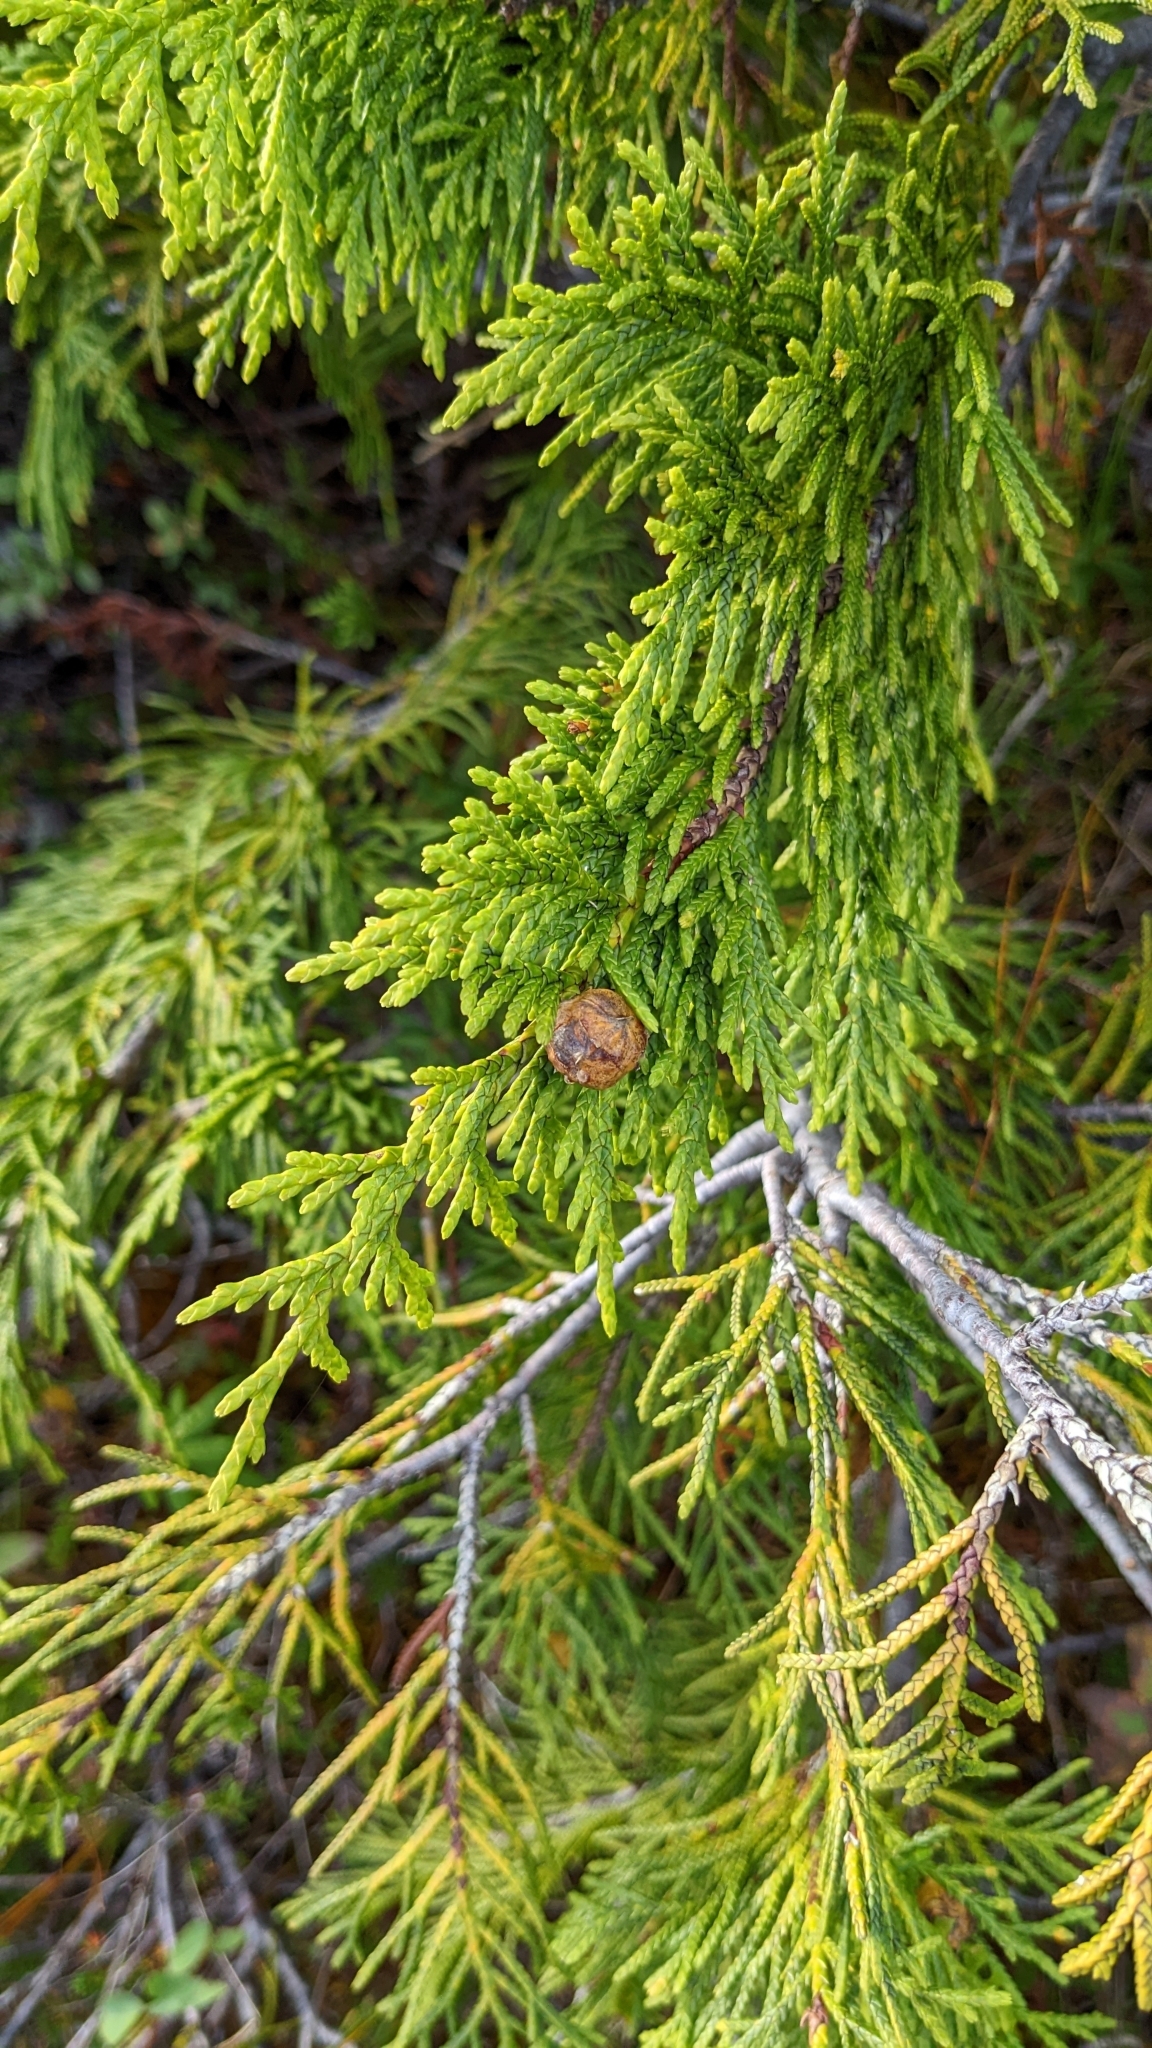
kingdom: Plantae
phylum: Tracheophyta
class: Pinopsida
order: Pinales
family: Cupressaceae
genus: Xanthocyparis
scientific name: Xanthocyparis nootkatensis
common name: Nootka cypress
